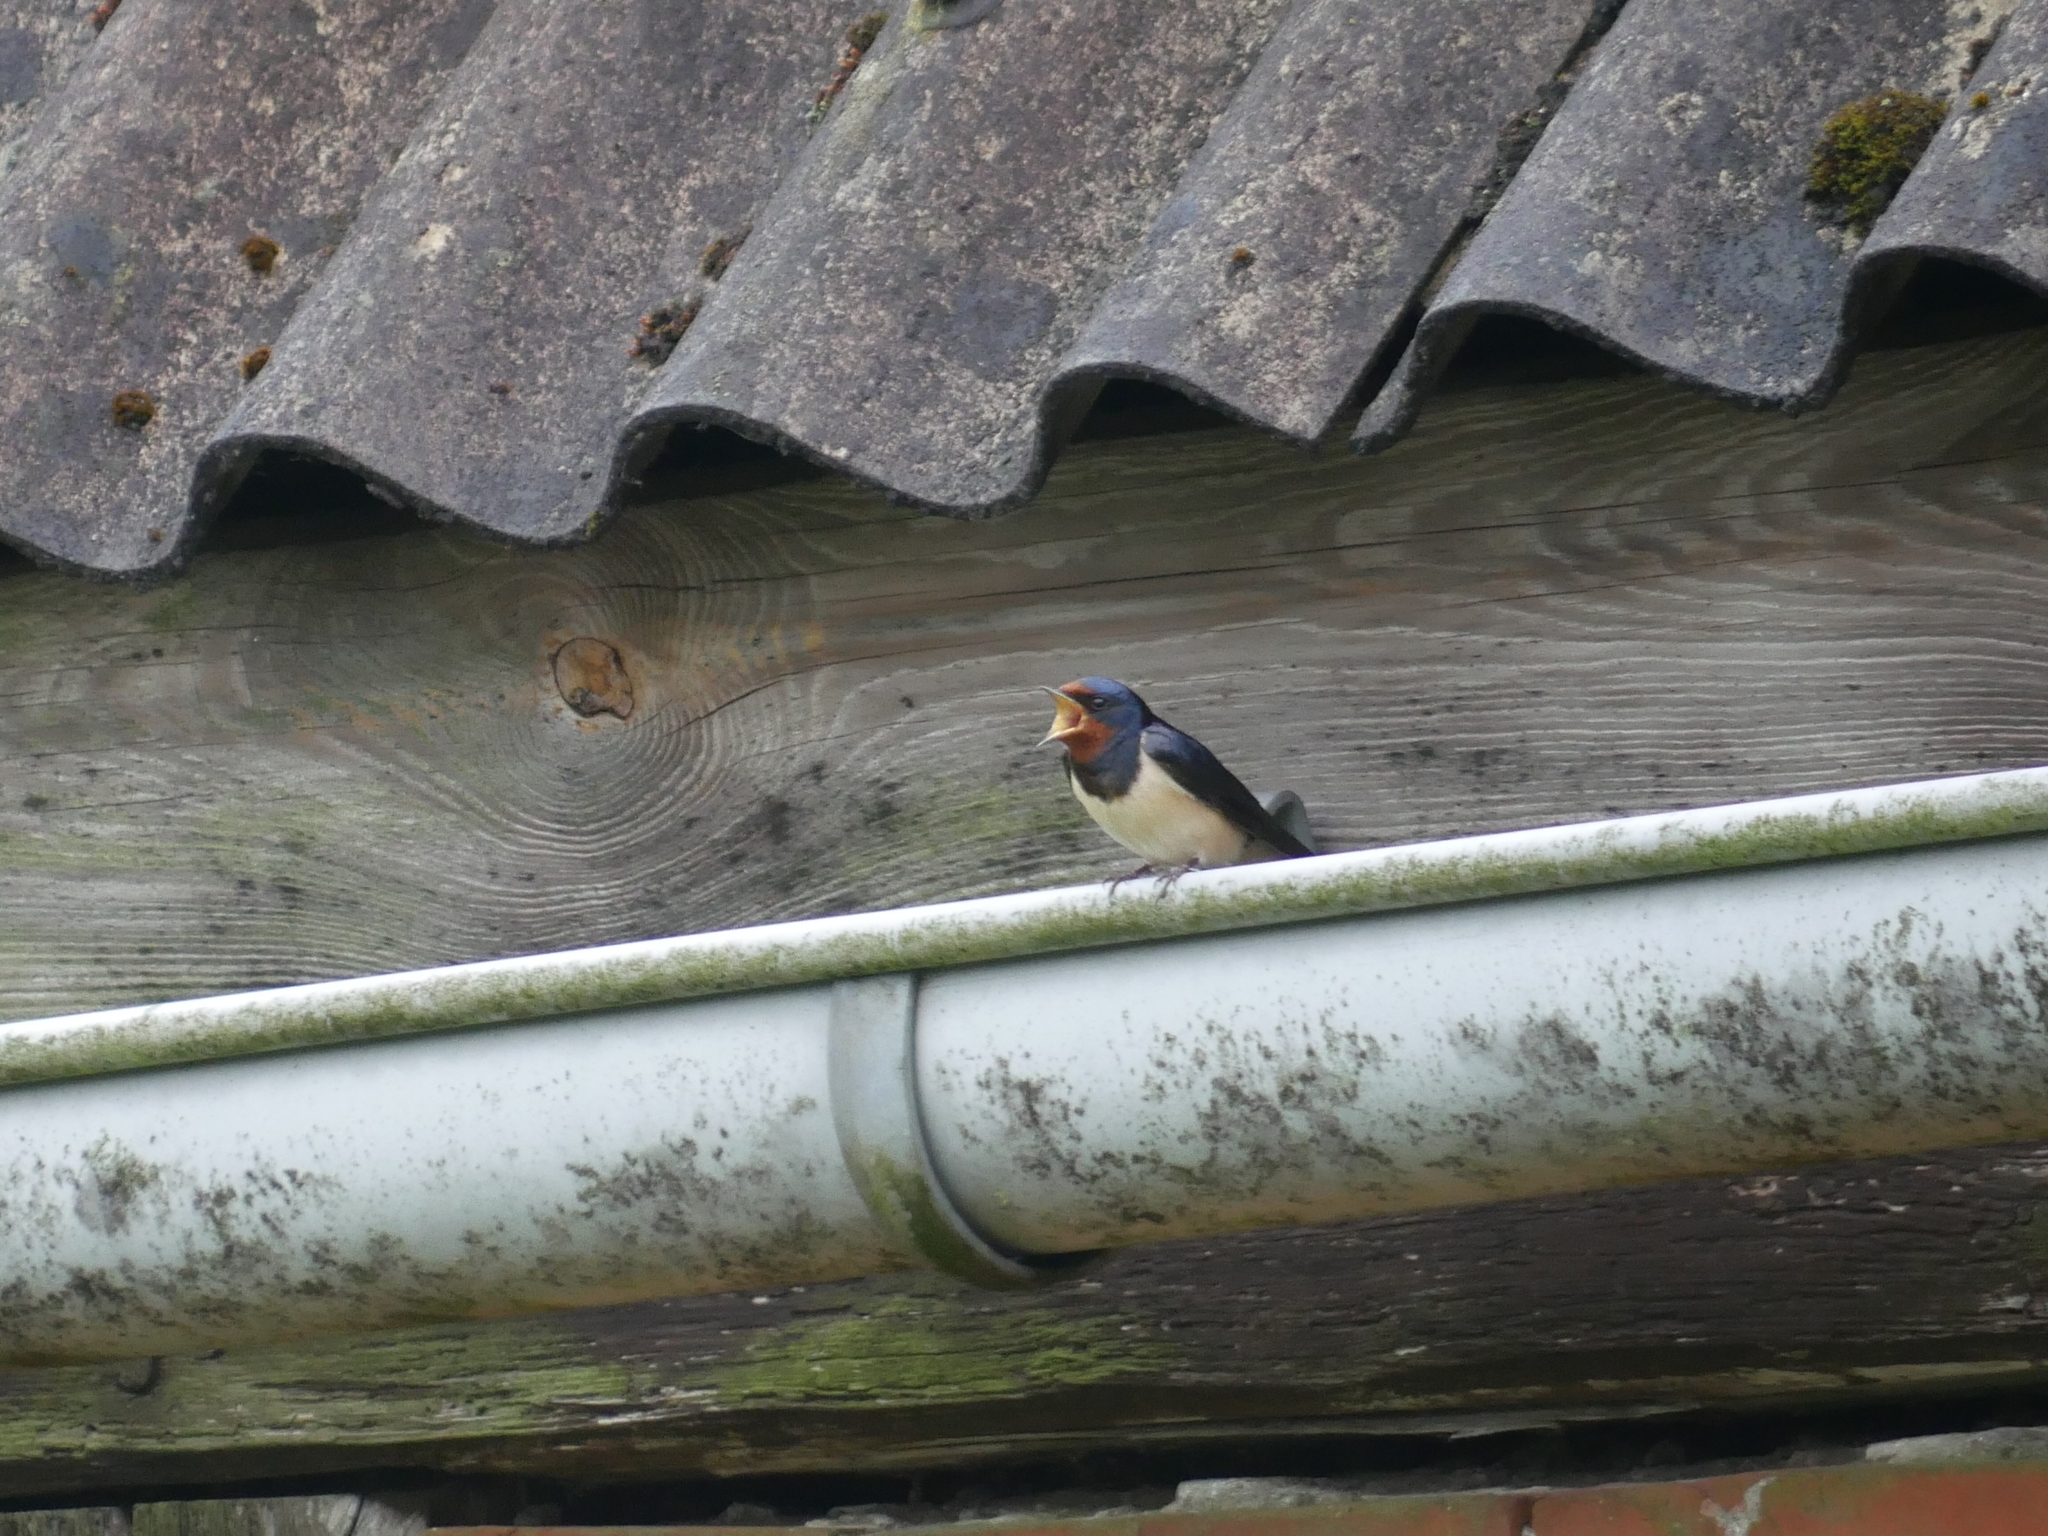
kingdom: Animalia
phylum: Chordata
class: Aves
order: Passeriformes
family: Hirundinidae
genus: Hirundo
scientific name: Hirundo rustica
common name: Barn swallow
